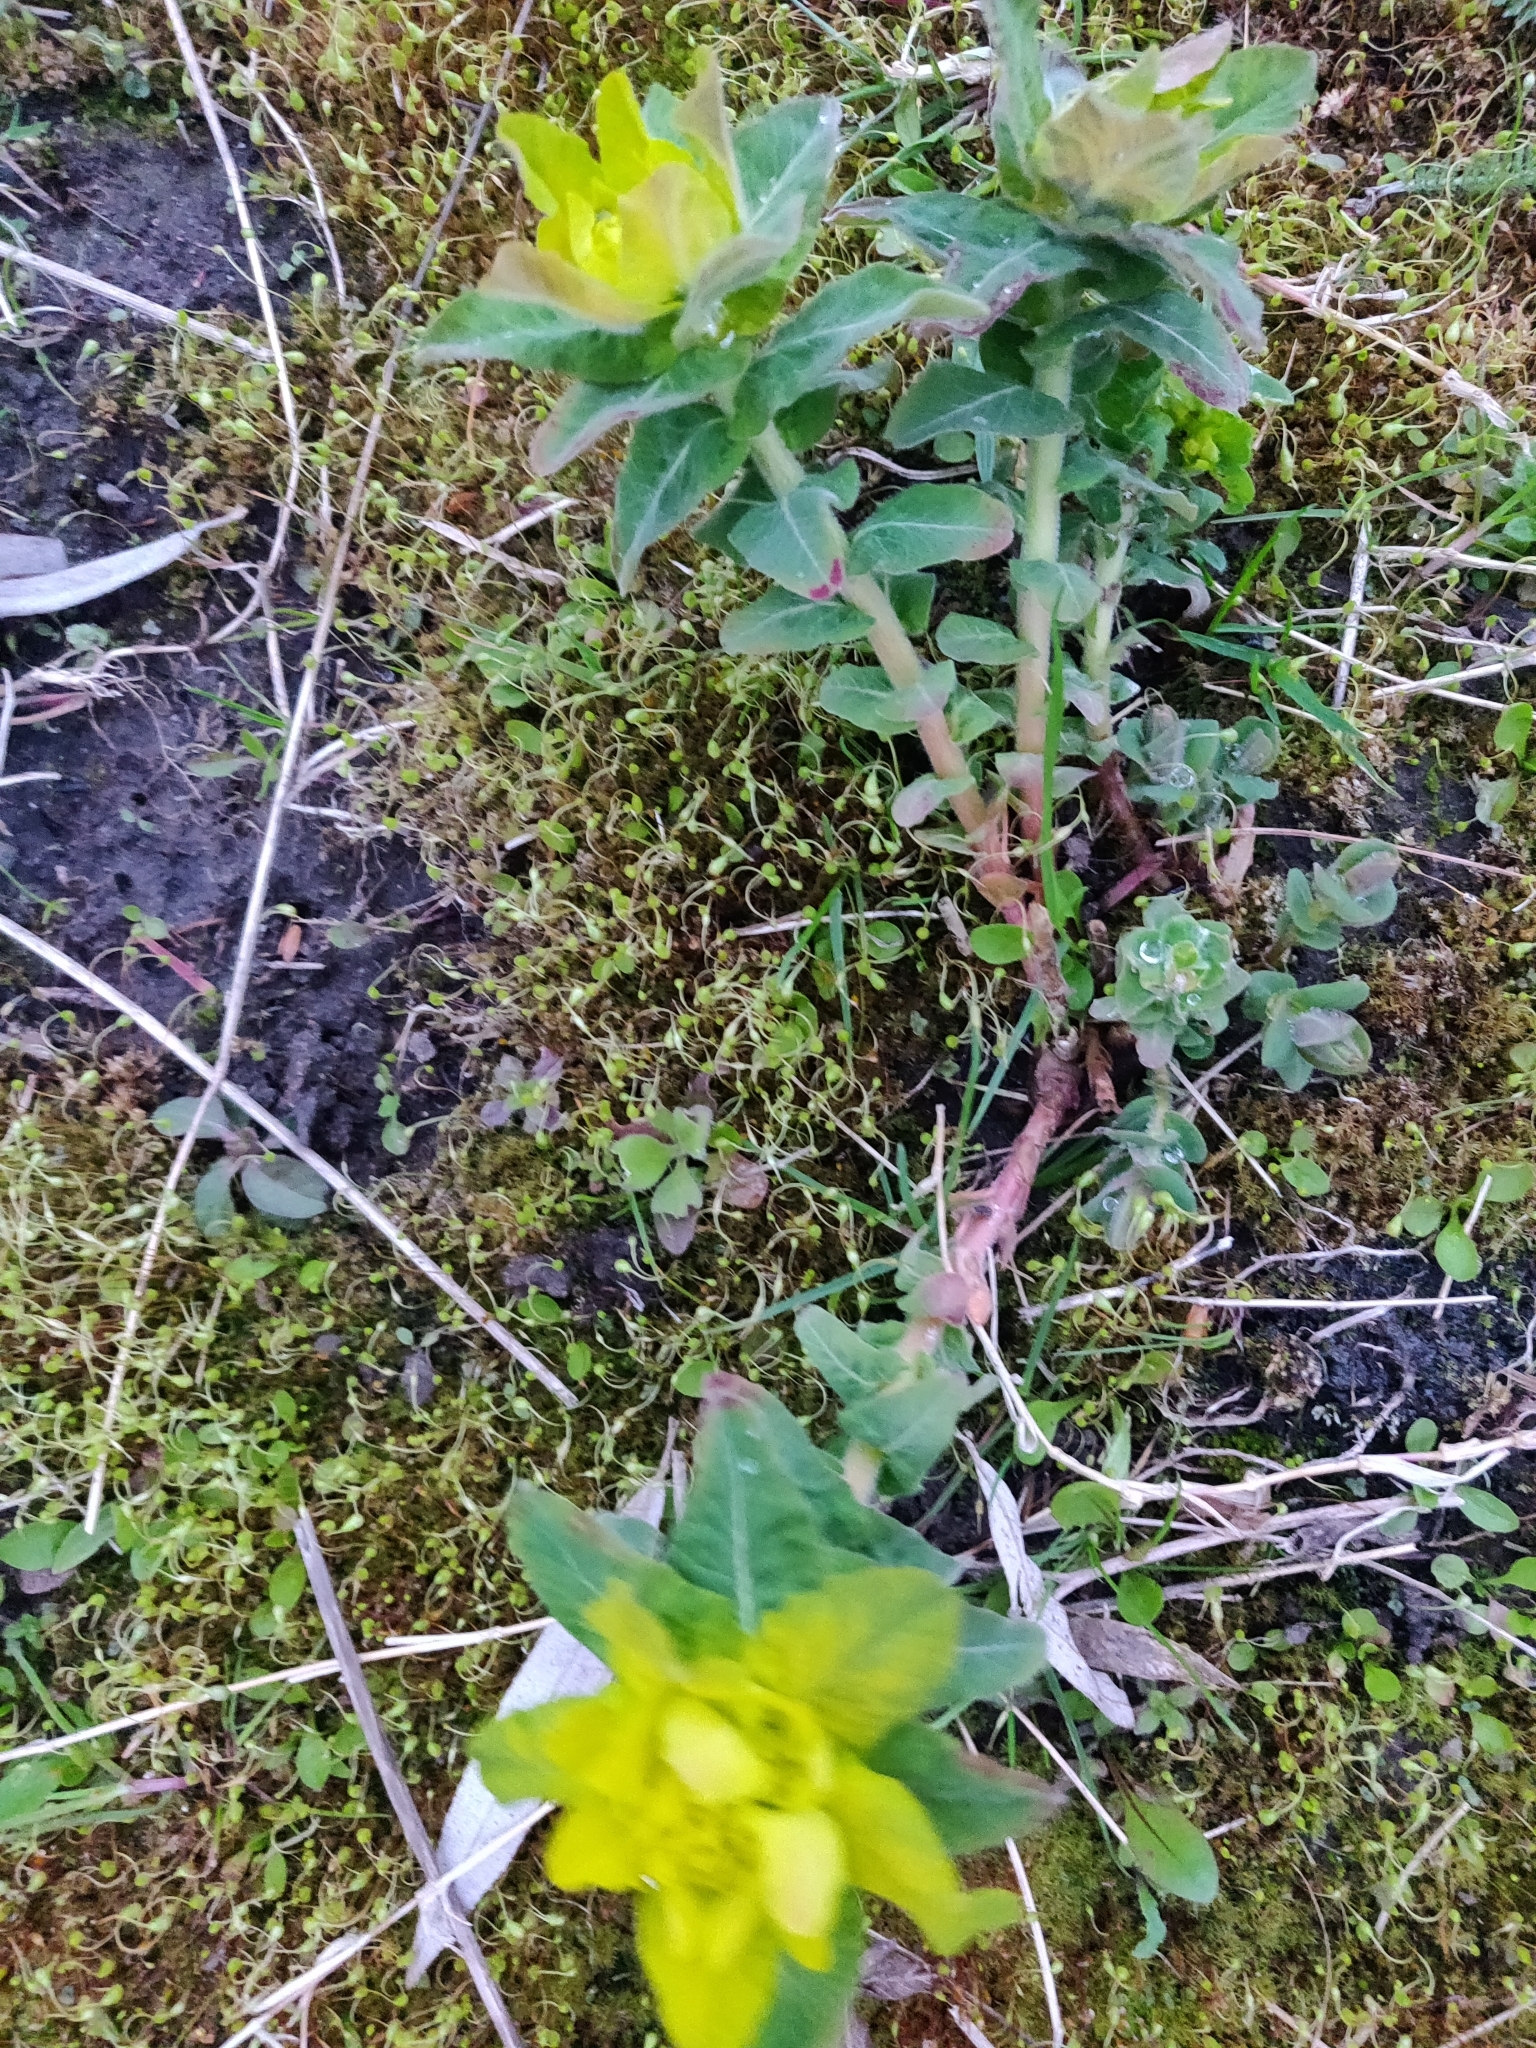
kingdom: Plantae
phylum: Tracheophyta
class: Magnoliopsida
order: Malpighiales
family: Euphorbiaceae
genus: Euphorbia
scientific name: Euphorbia epithymoides
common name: Cushion spurge
